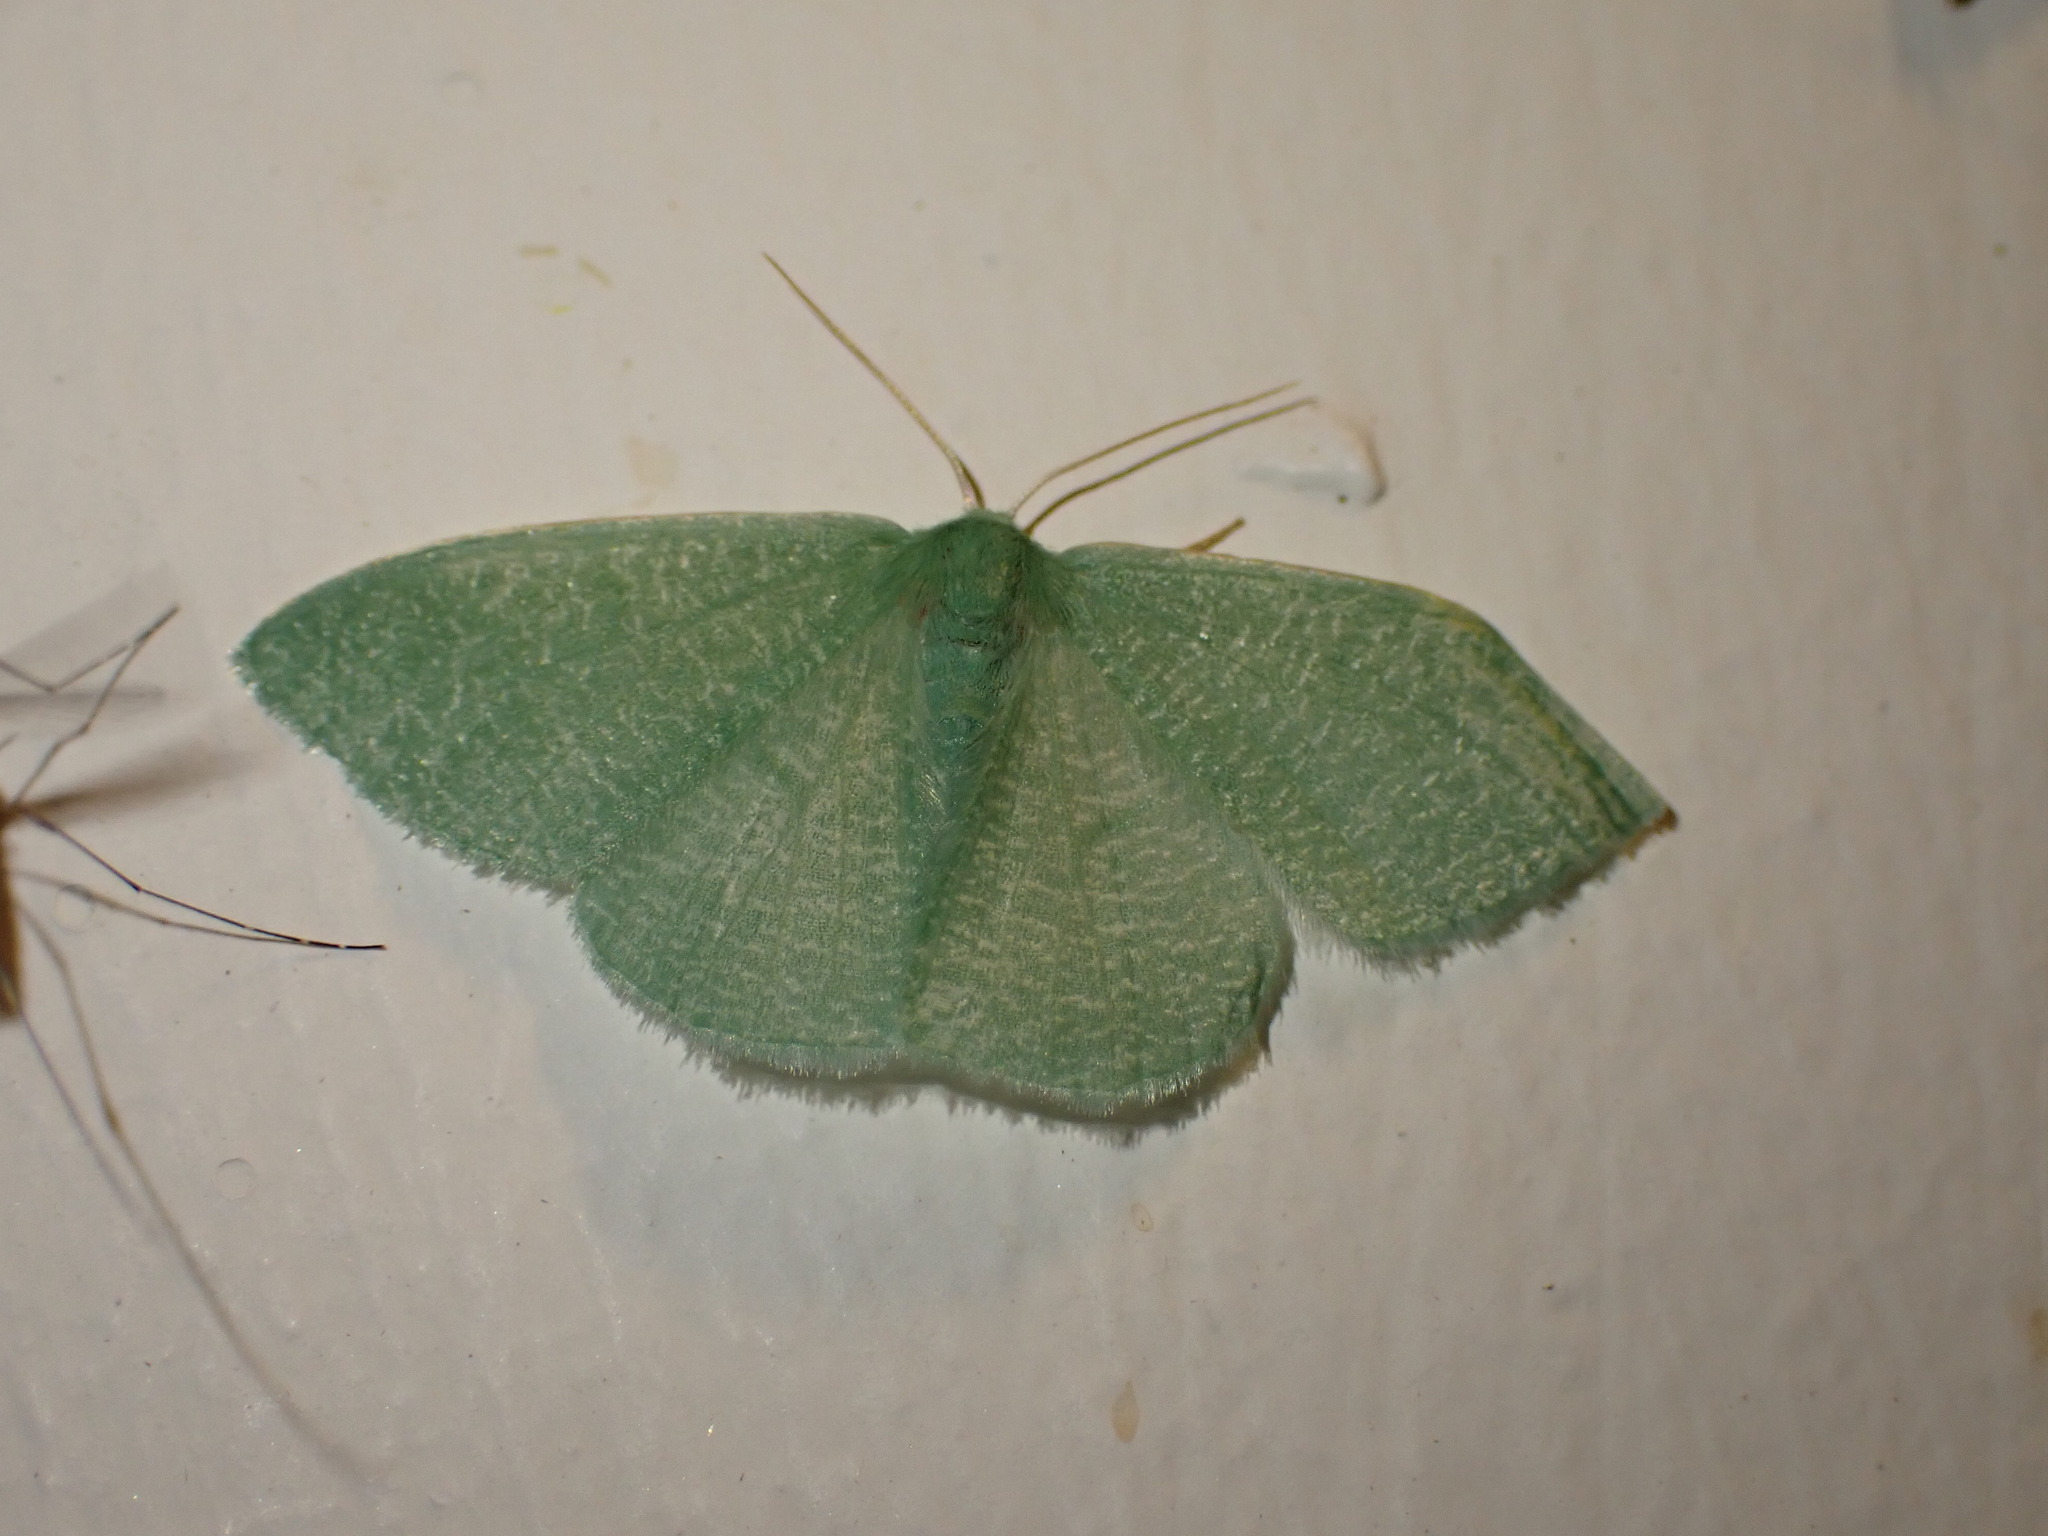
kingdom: Animalia
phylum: Arthropoda
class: Insecta
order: Lepidoptera
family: Geometridae
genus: Chlorissa
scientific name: Chlorissa albistrigulata
